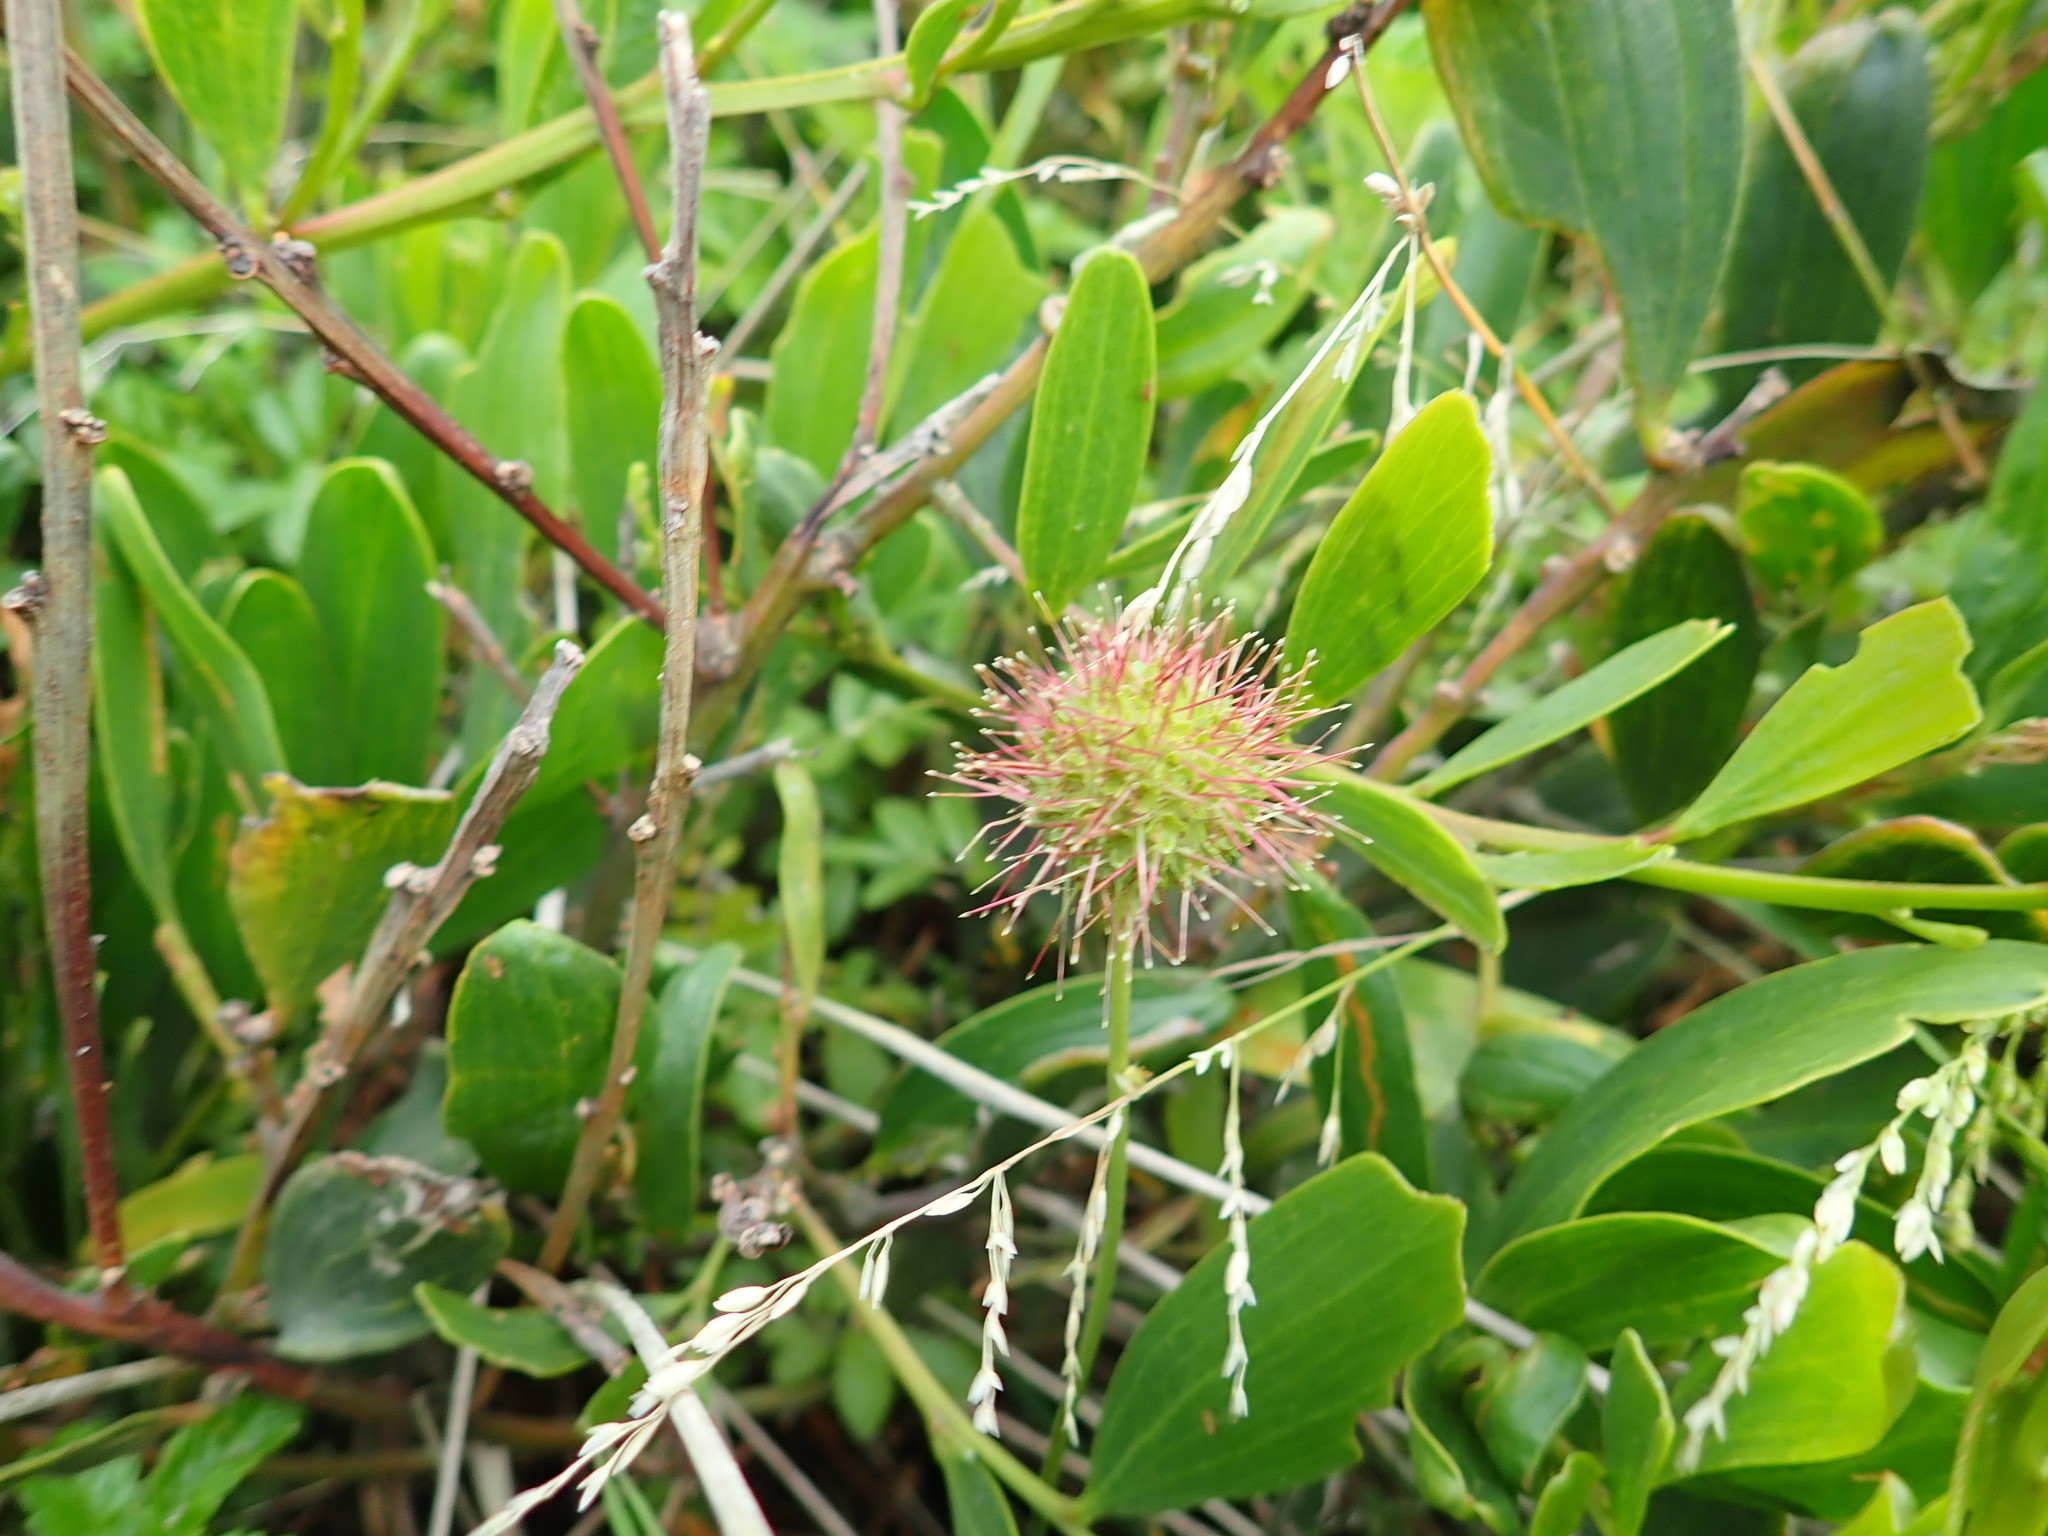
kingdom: Plantae
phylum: Tracheophyta
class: Magnoliopsida
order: Rosales
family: Rosaceae
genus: Acaena
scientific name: Acaena pallida
